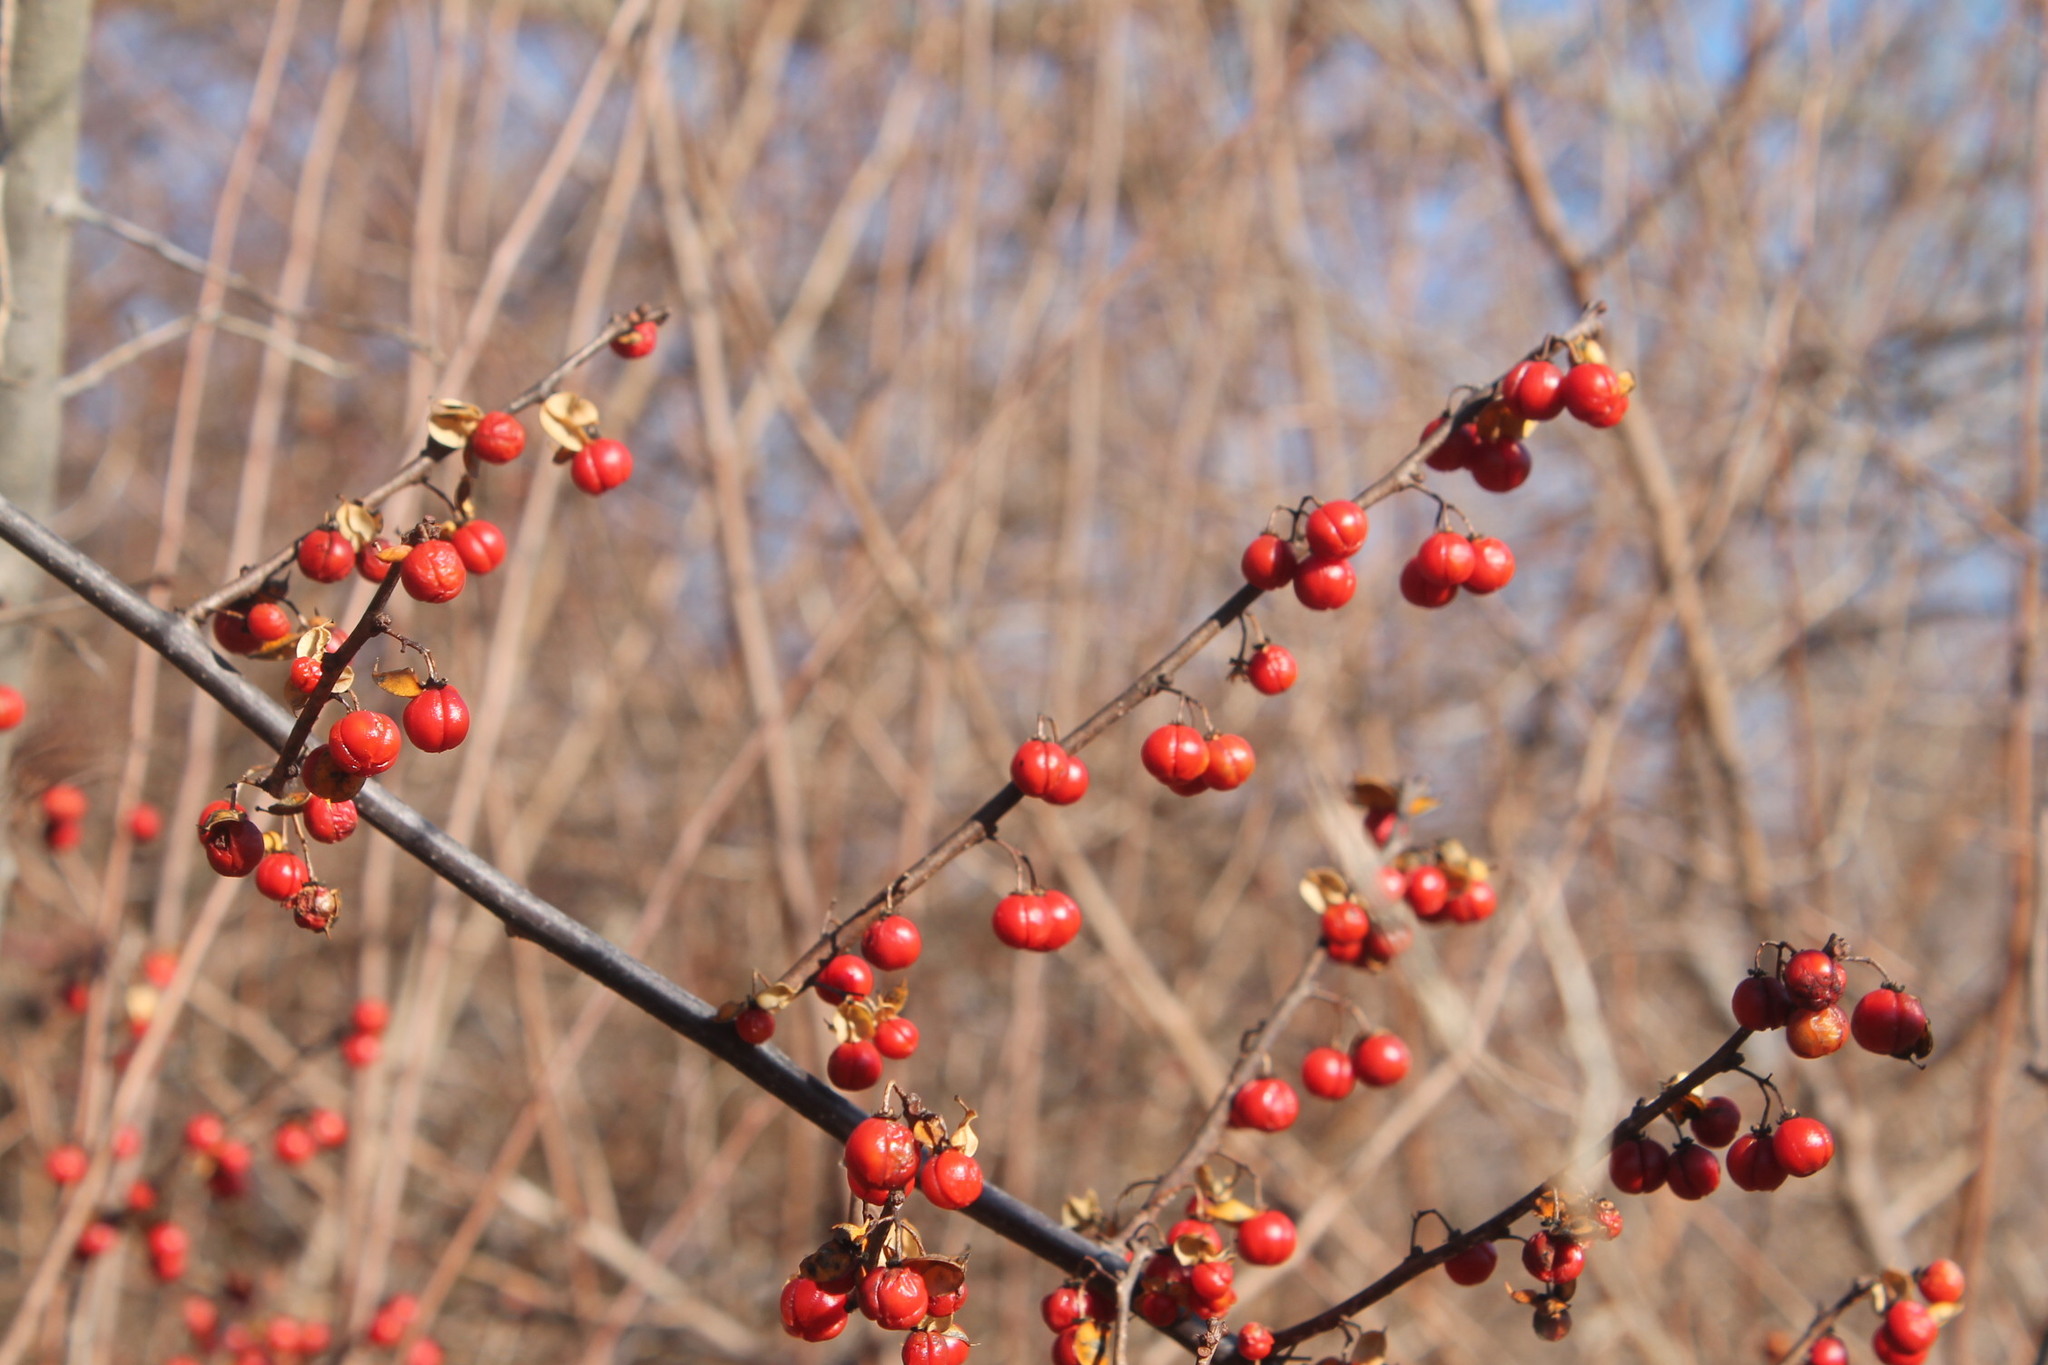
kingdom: Plantae
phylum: Tracheophyta
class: Magnoliopsida
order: Celastrales
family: Celastraceae
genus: Celastrus
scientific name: Celastrus orbiculatus
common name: Oriental bittersweet
